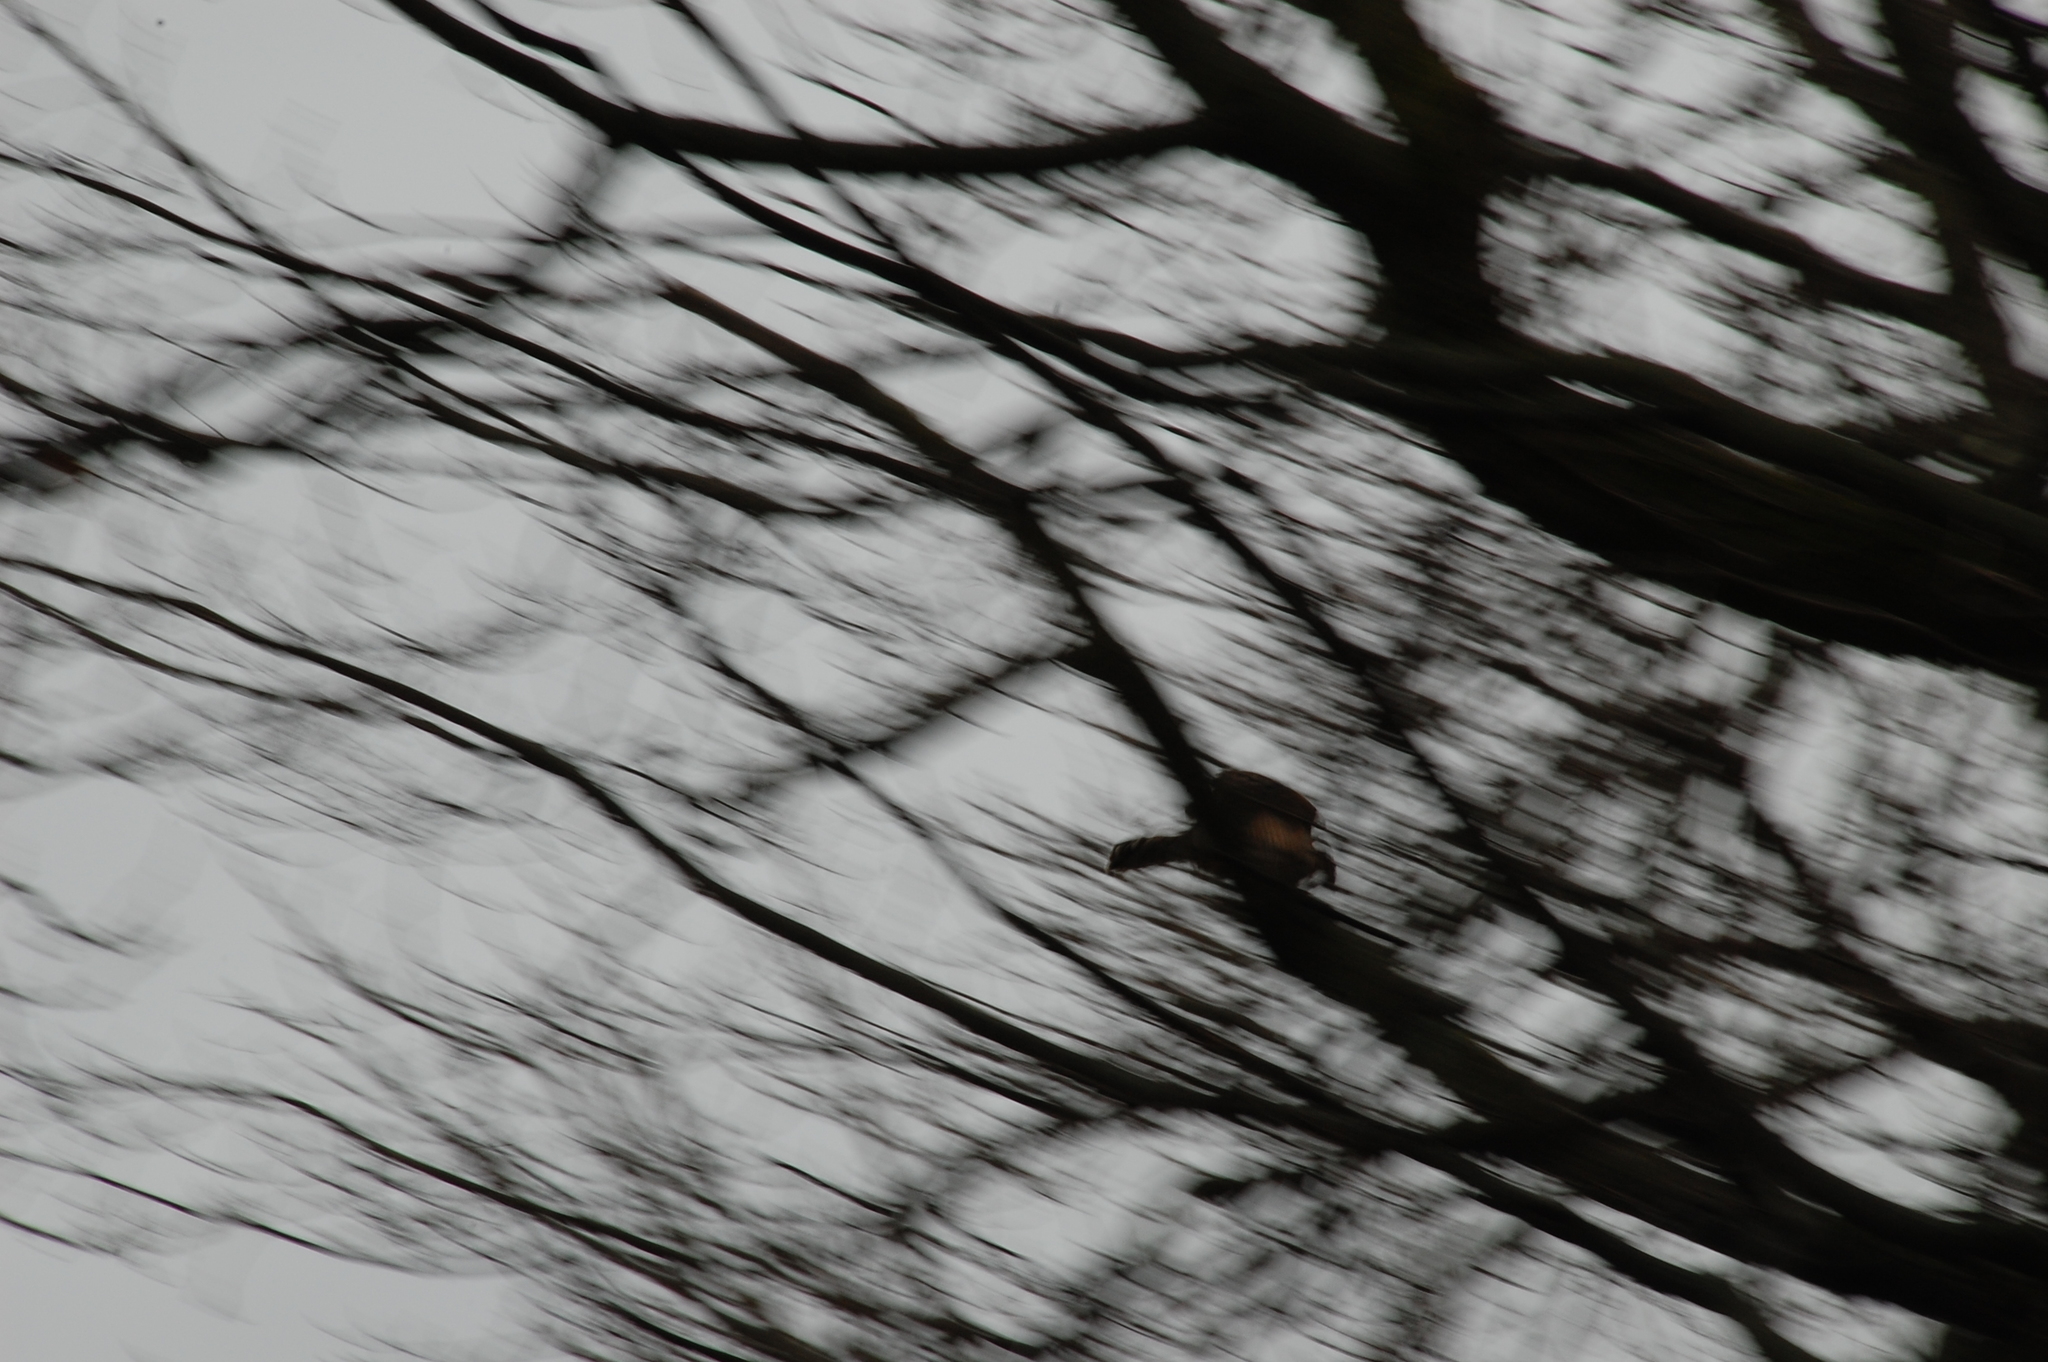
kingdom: Animalia
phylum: Chordata
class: Aves
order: Accipitriformes
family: Accipitridae
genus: Accipiter
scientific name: Accipiter cooperii
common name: Cooper's hawk
